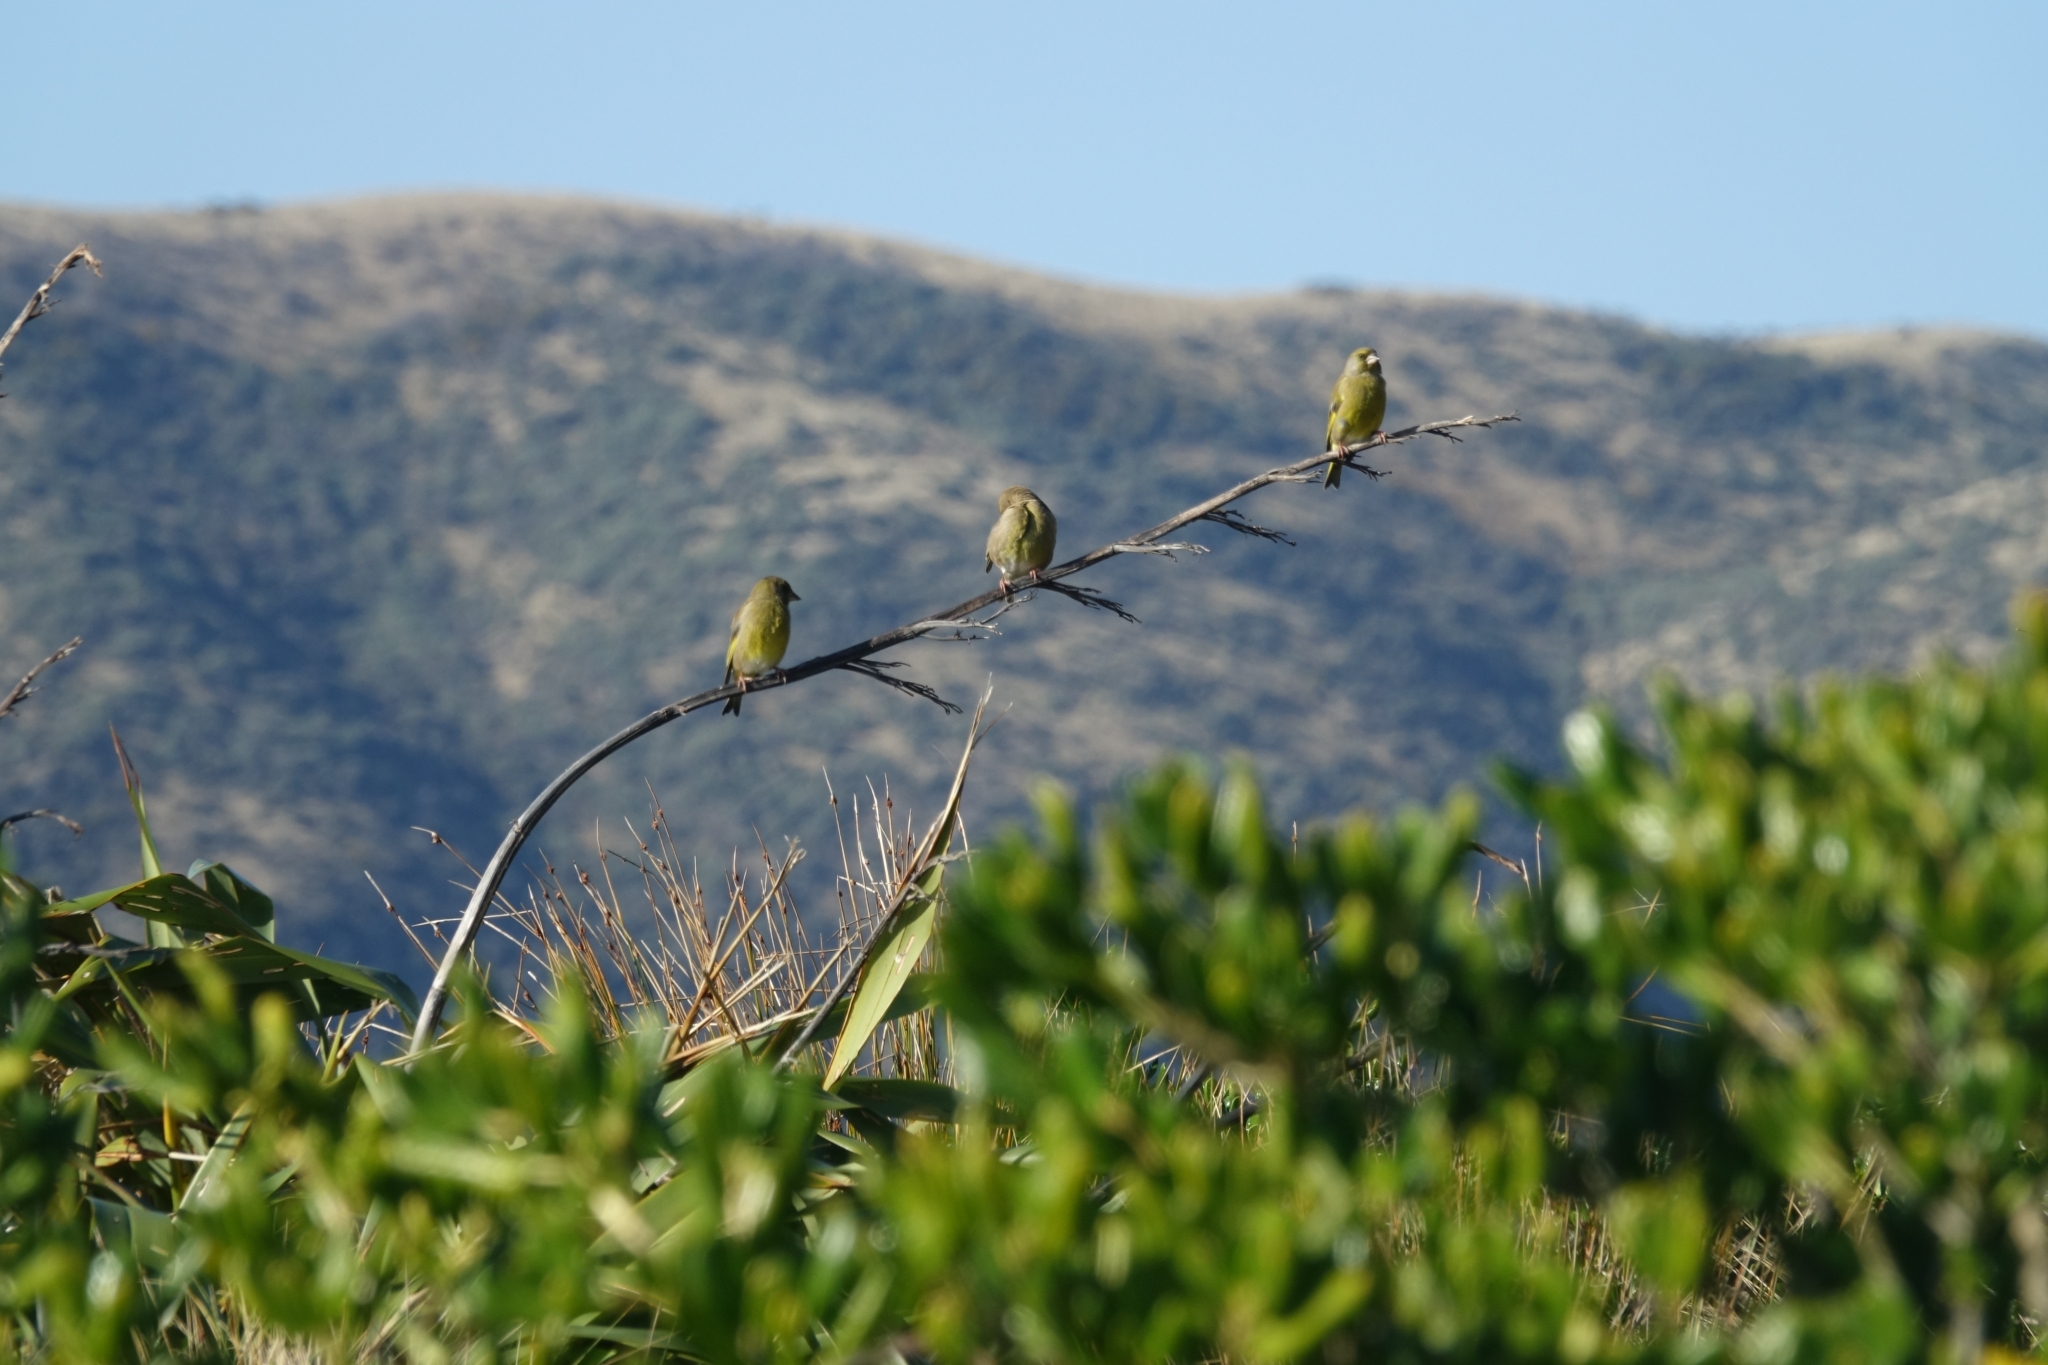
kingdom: Plantae
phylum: Tracheophyta
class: Liliopsida
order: Poales
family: Poaceae
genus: Chloris
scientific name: Chloris chloris
